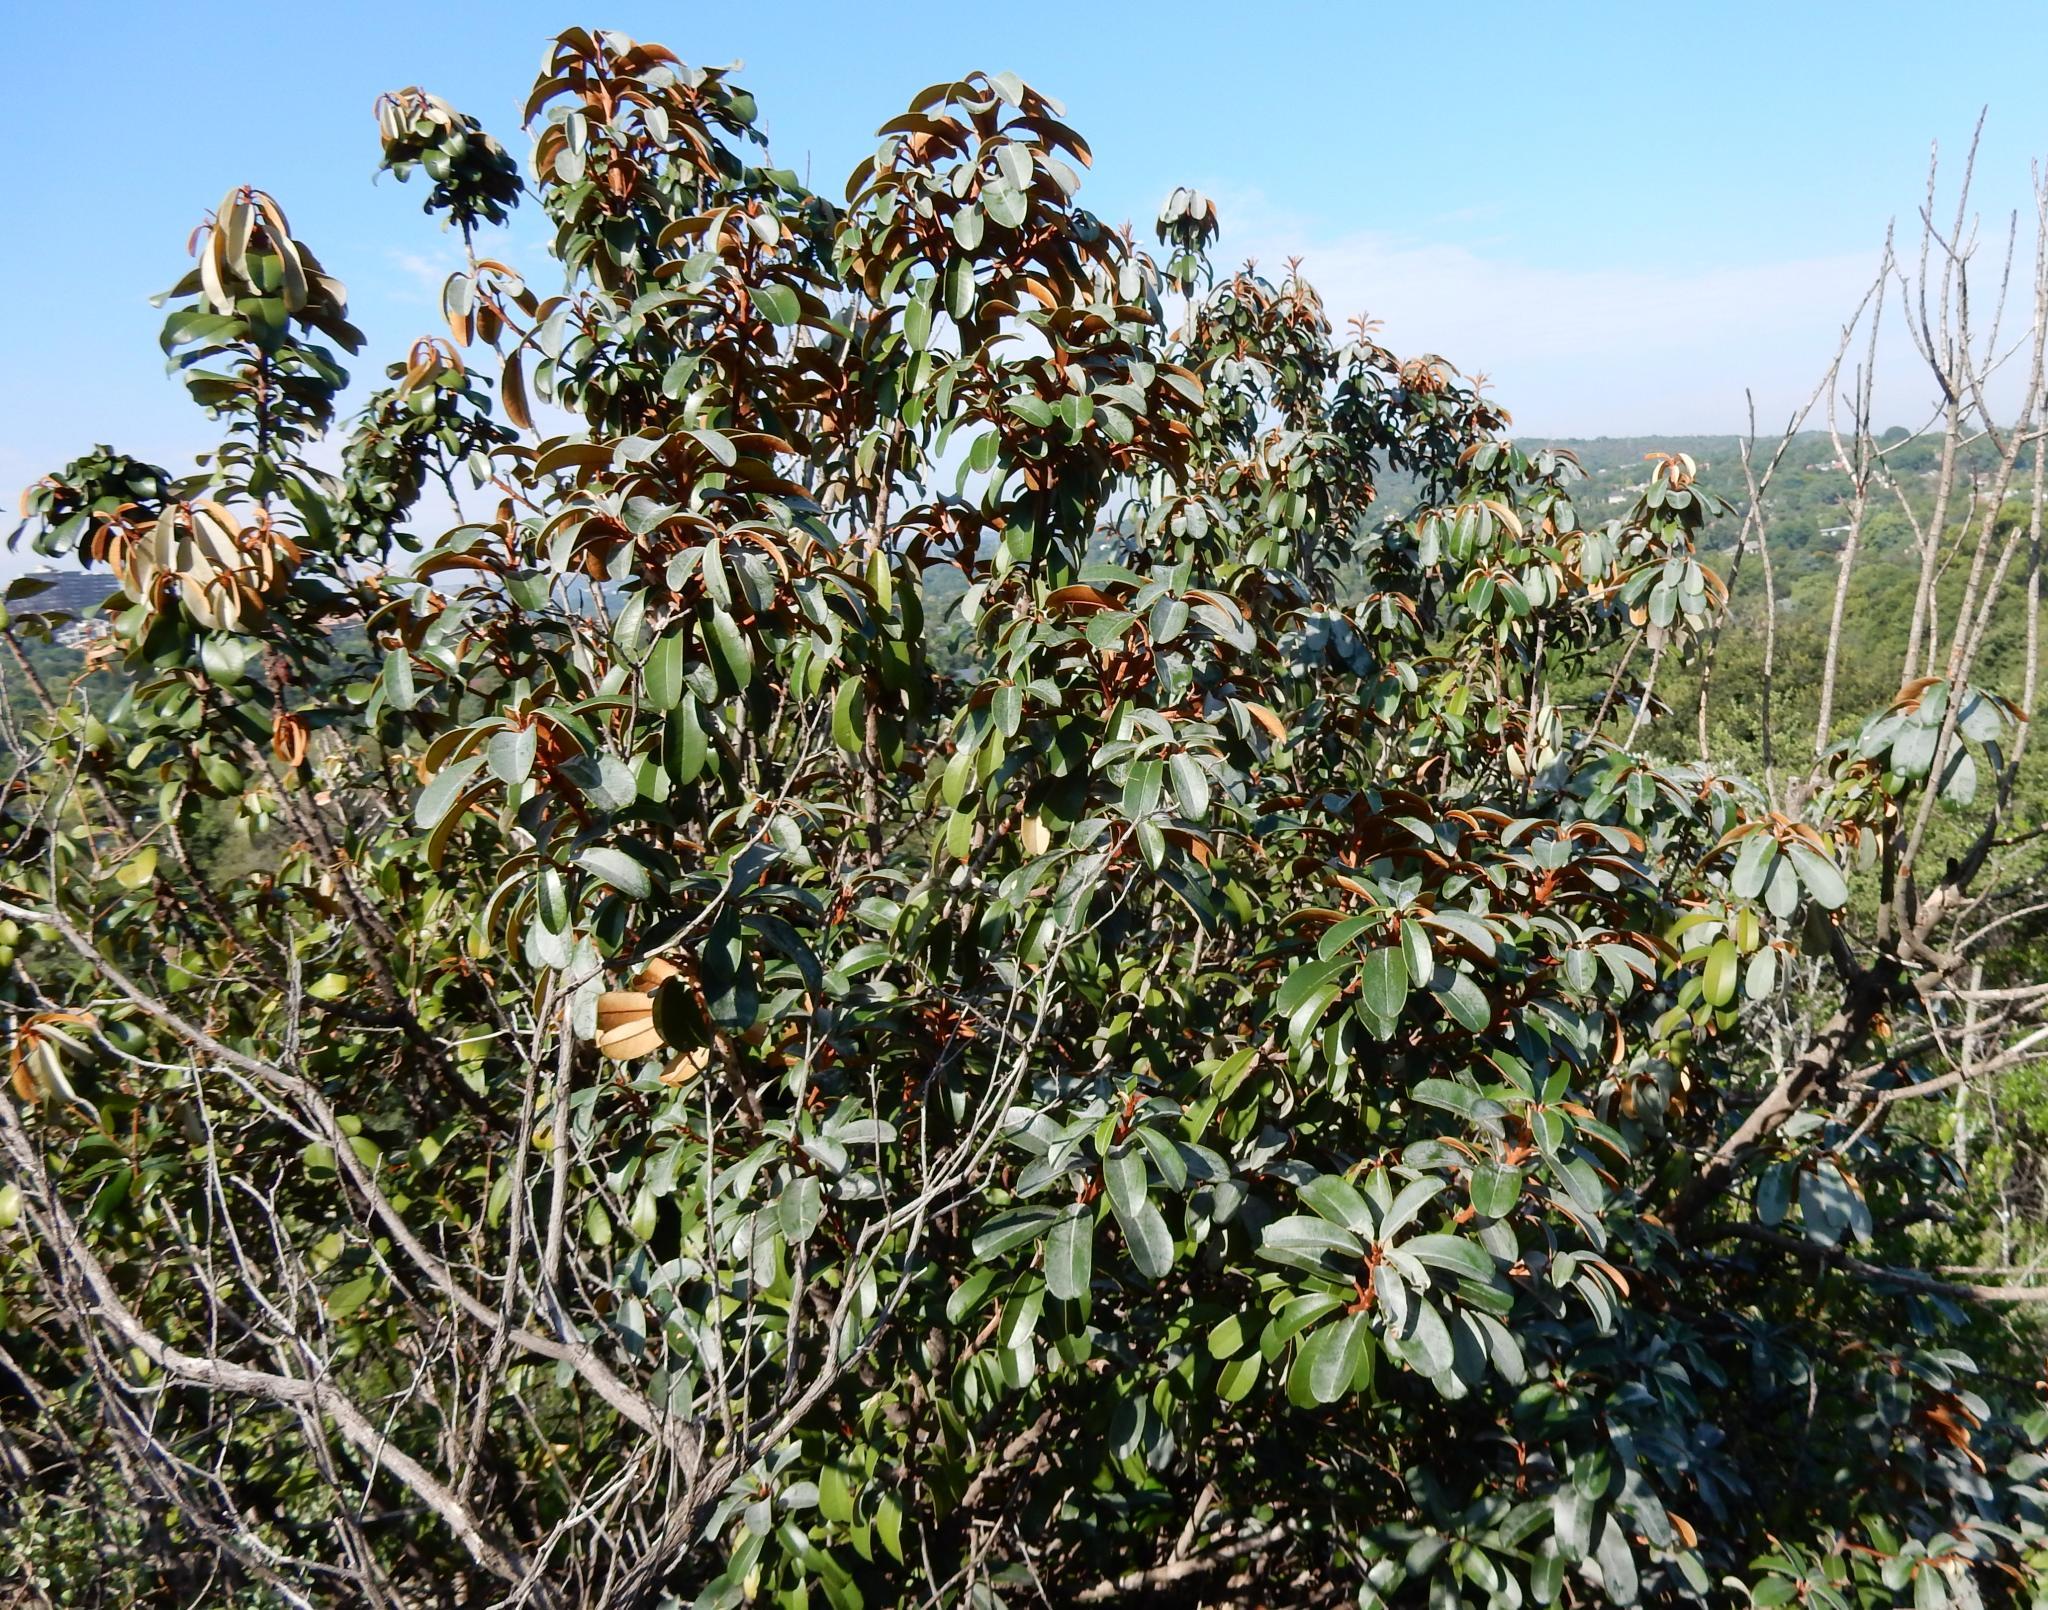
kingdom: Plantae
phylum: Tracheophyta
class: Magnoliopsida
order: Ericales
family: Sapotaceae
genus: Englerophytum
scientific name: Englerophytum magalismontanum
